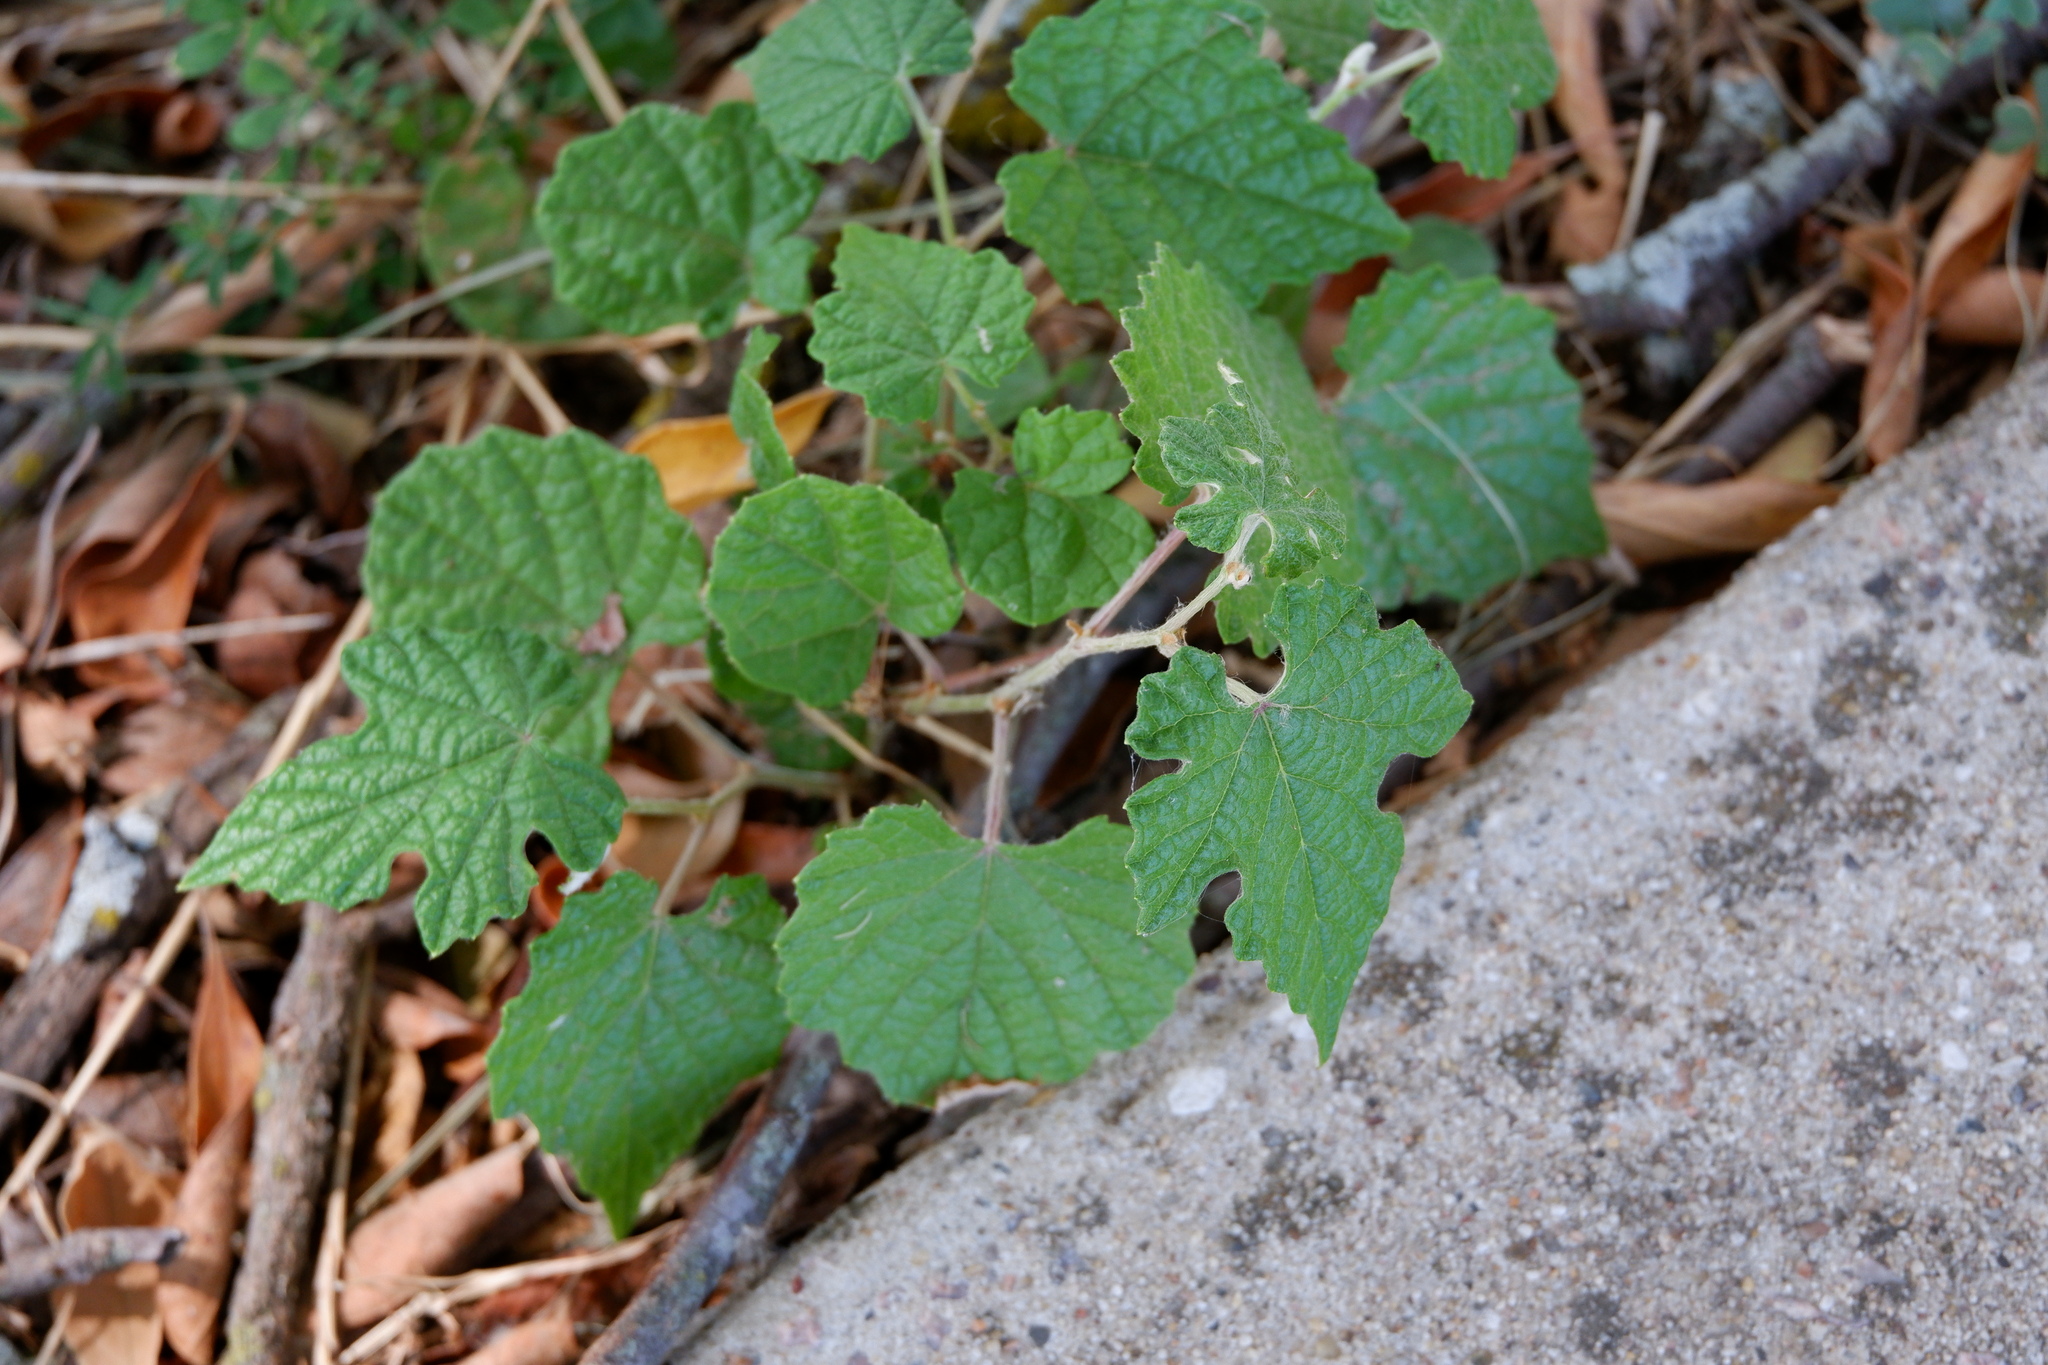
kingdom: Plantae
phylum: Tracheophyta
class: Magnoliopsida
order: Vitales
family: Vitaceae
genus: Vitis
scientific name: Vitis mustangensis
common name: Mustang grape
